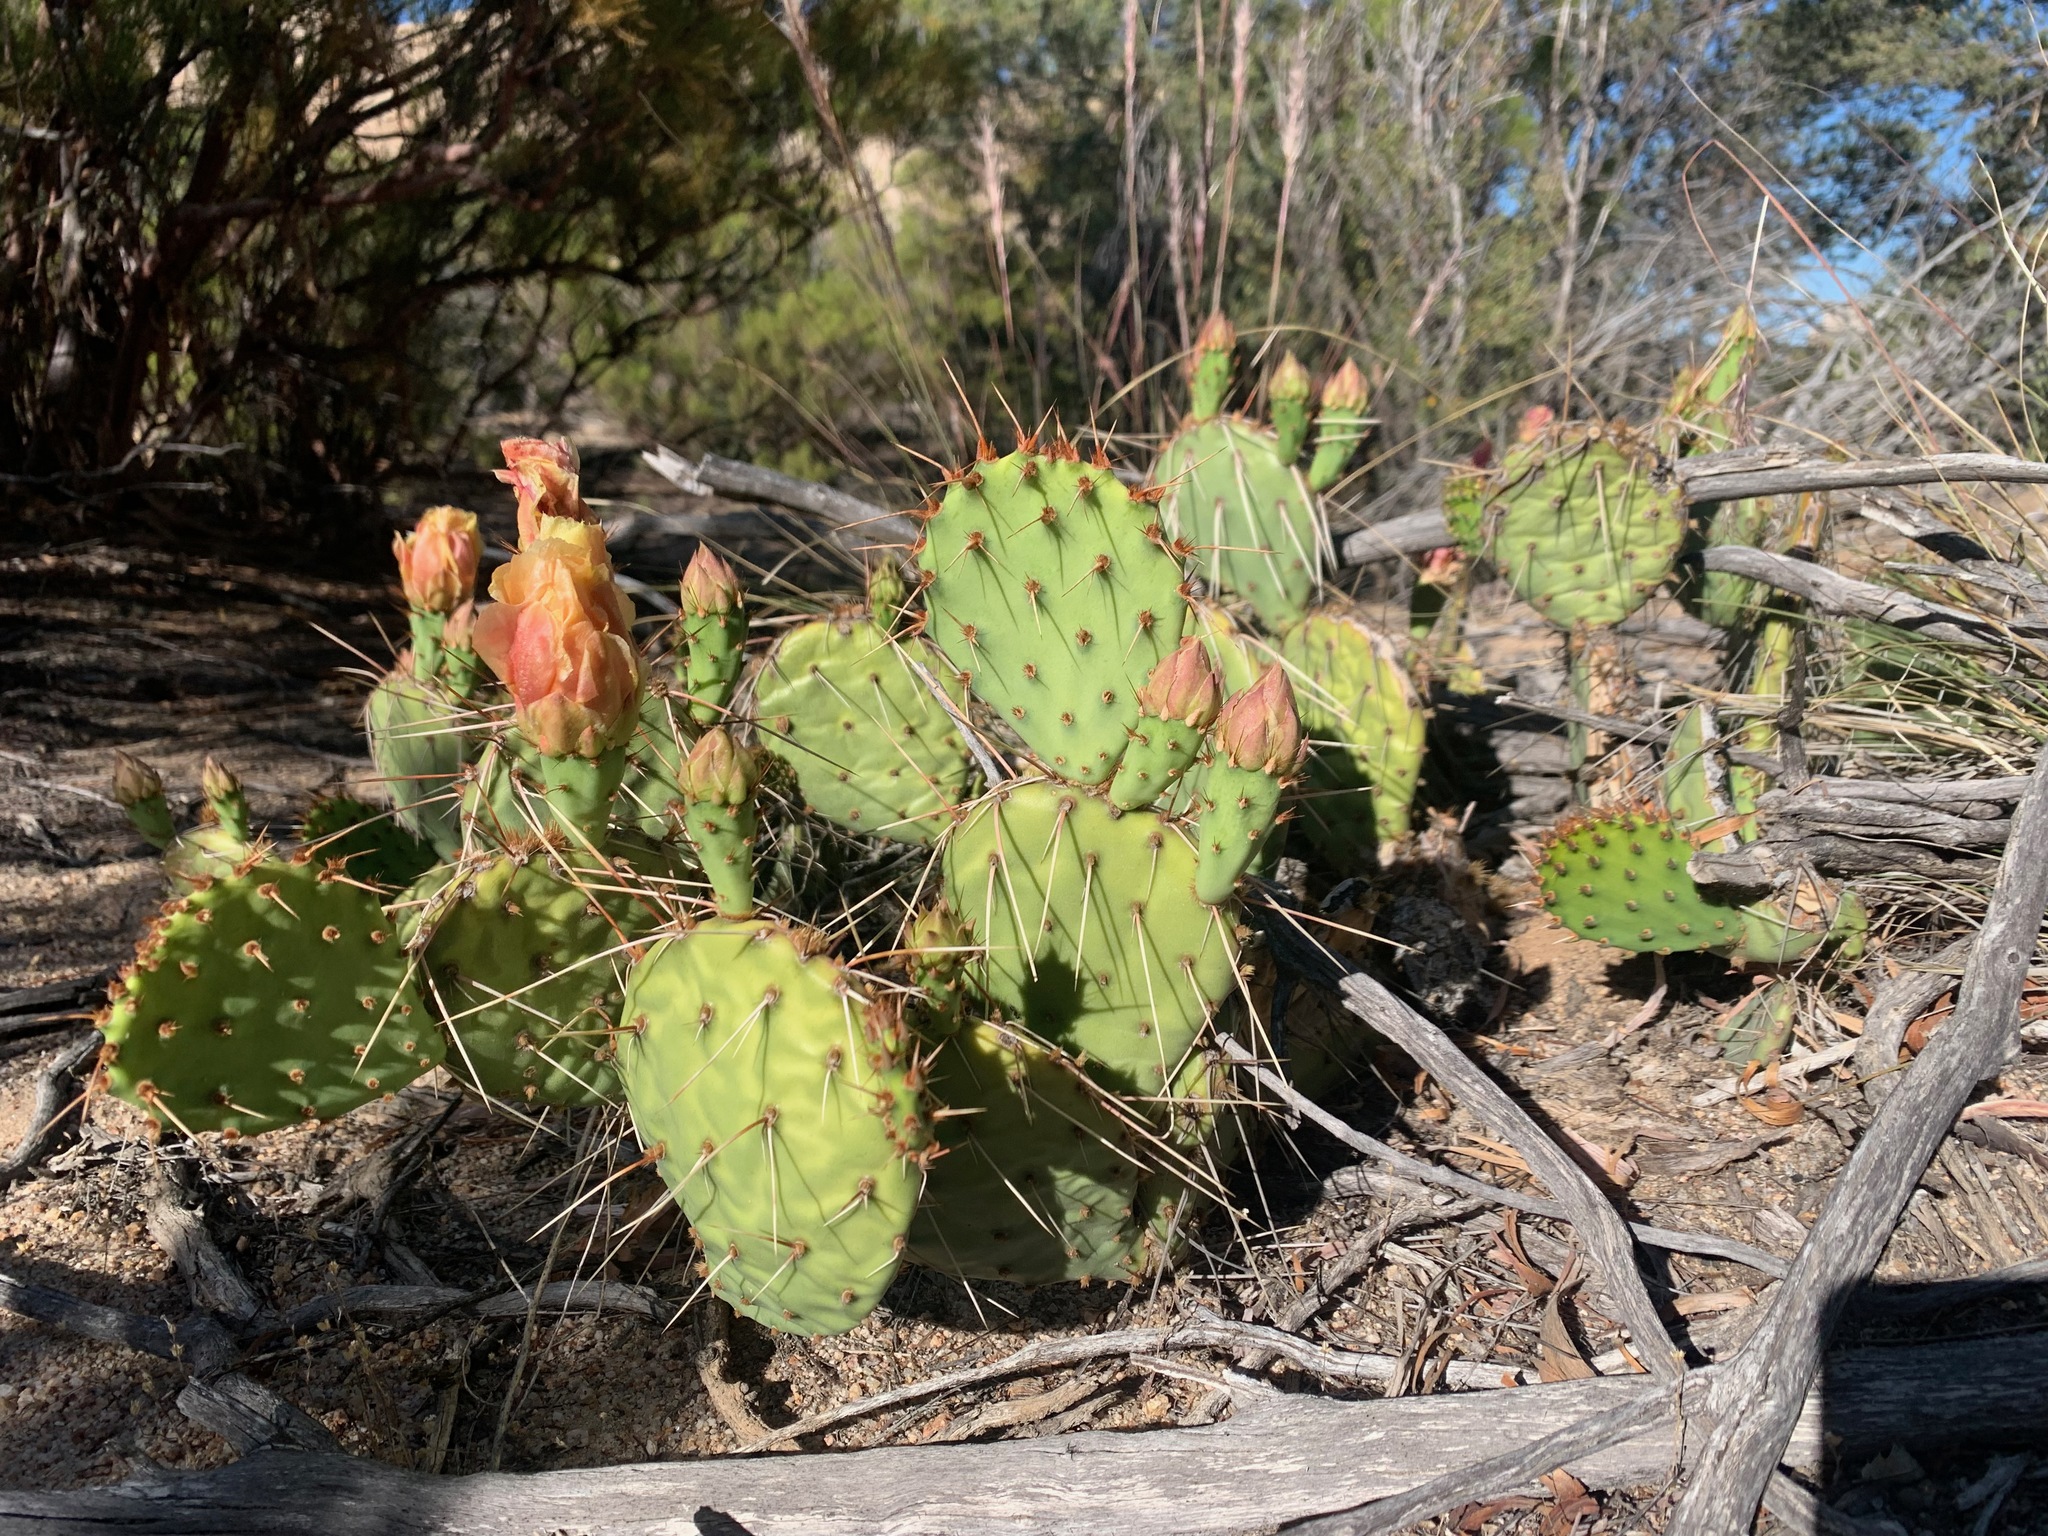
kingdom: Plantae
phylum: Tracheophyta
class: Magnoliopsida
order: Caryophyllales
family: Cactaceae
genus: Opuntia
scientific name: Opuntia phaeacantha
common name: New mexico prickly-pear
